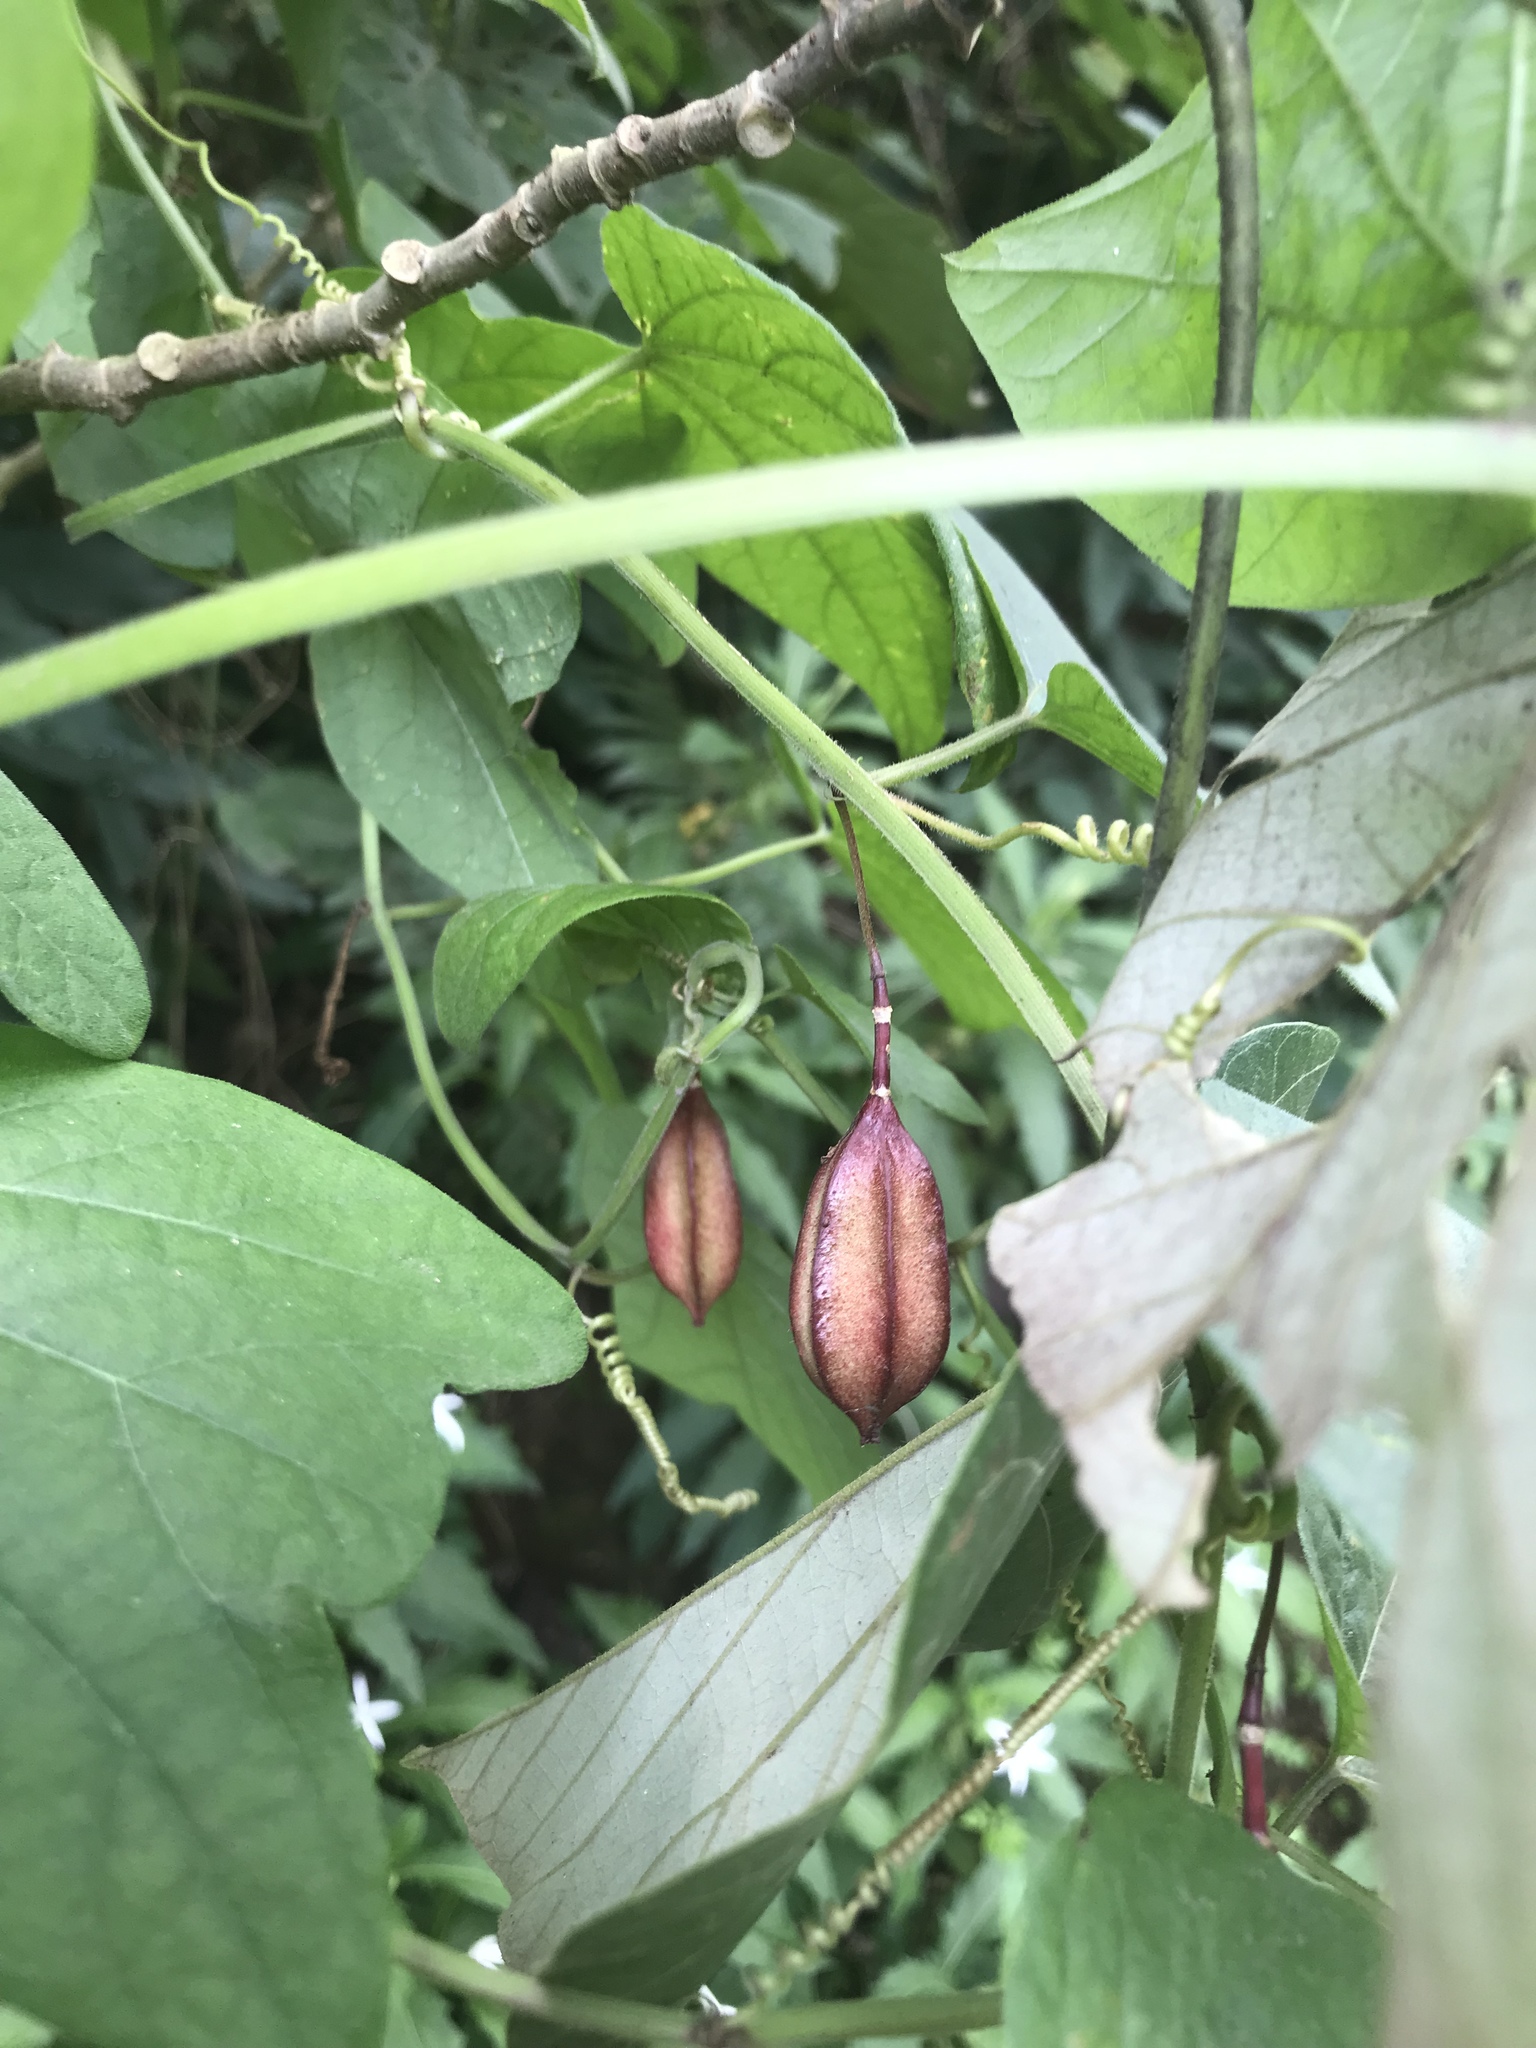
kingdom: Plantae
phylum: Tracheophyta
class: Magnoliopsida
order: Malpighiales
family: Passifloraceae
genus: Passiflora
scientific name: Passiflora rubra
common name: Snakeberry vine
